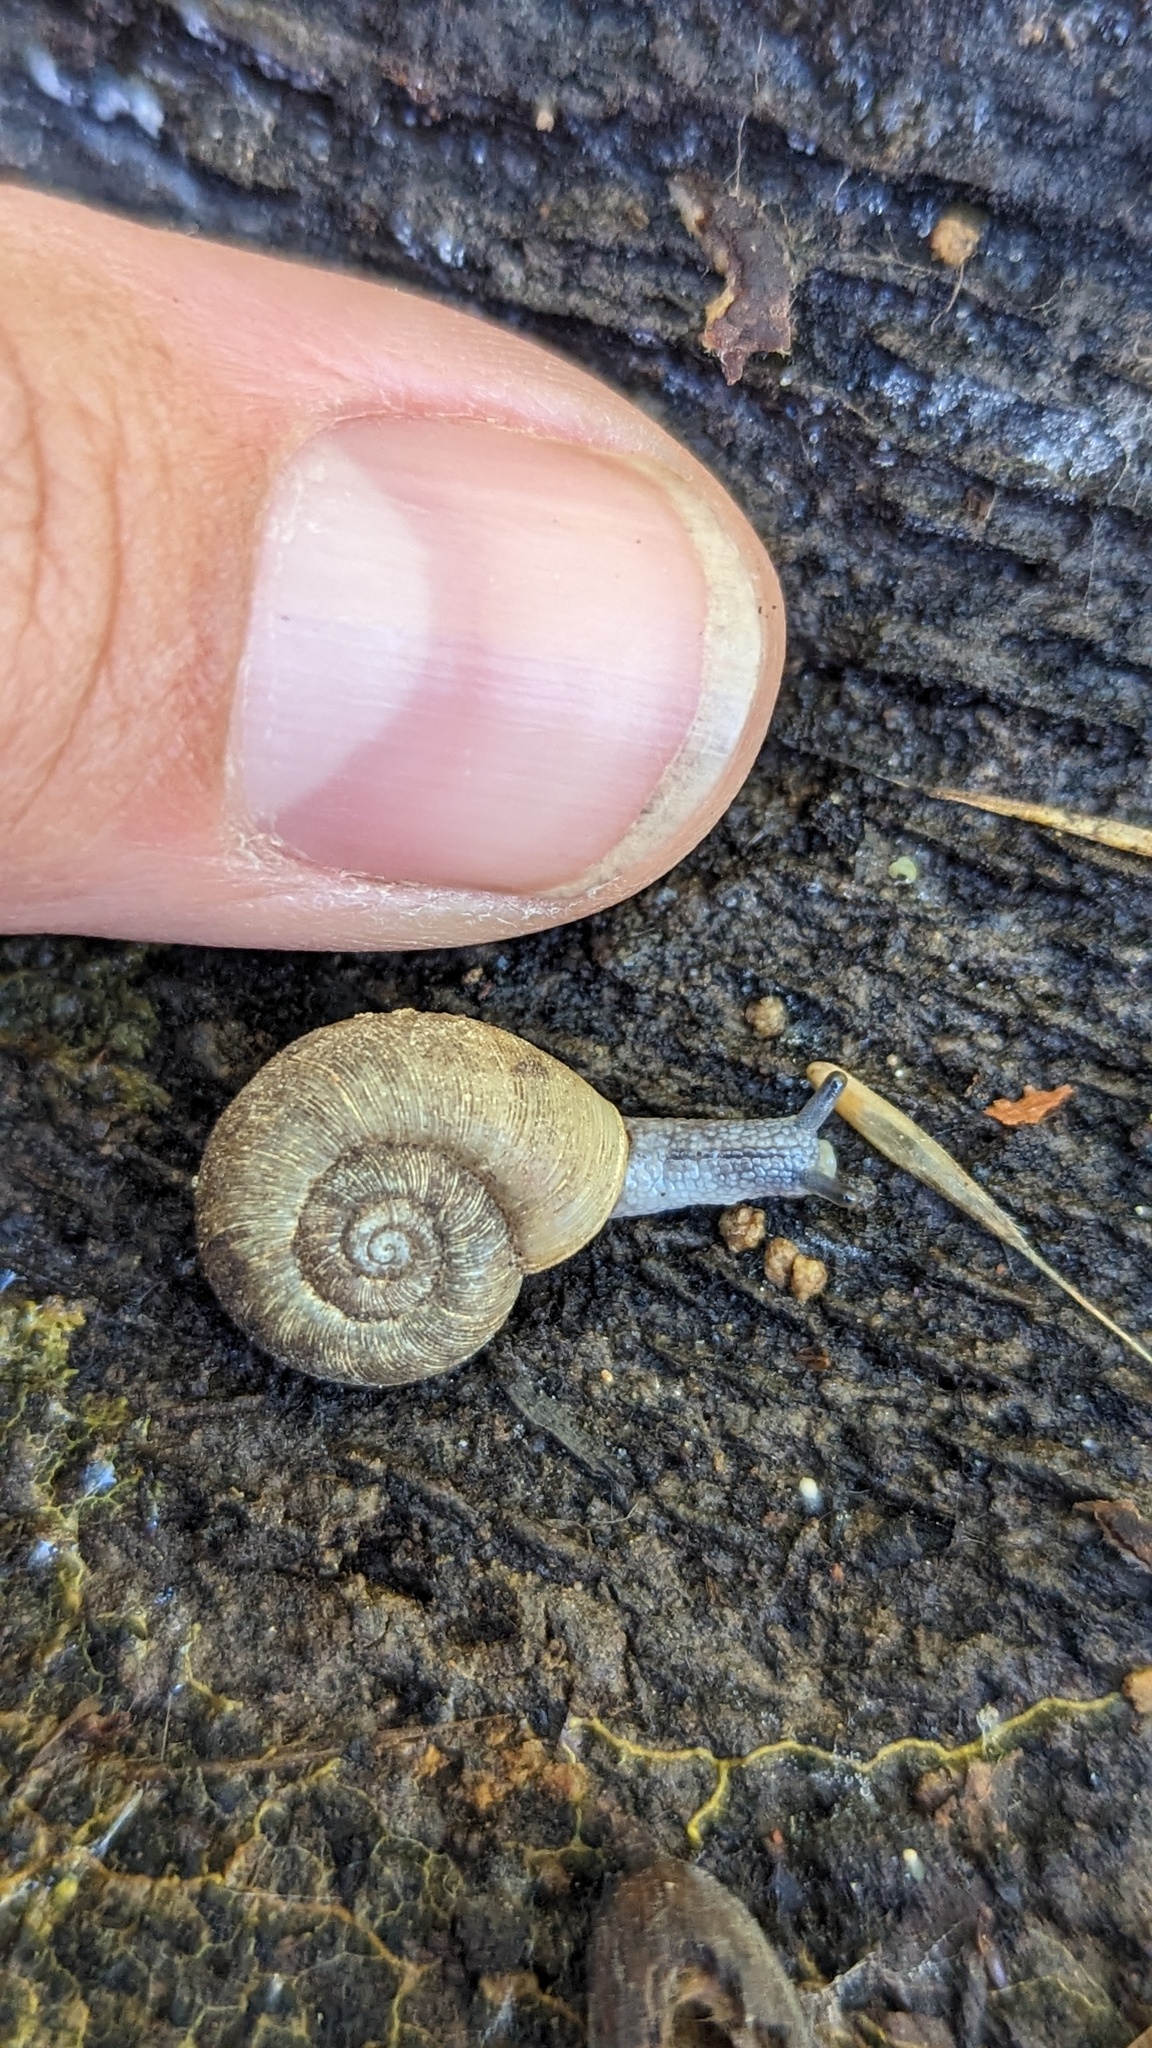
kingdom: Animalia
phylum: Mollusca
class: Gastropoda
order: Stylommatophora
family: Haplotrematidae
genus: Haplotrema
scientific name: Haplotrema transfuga
